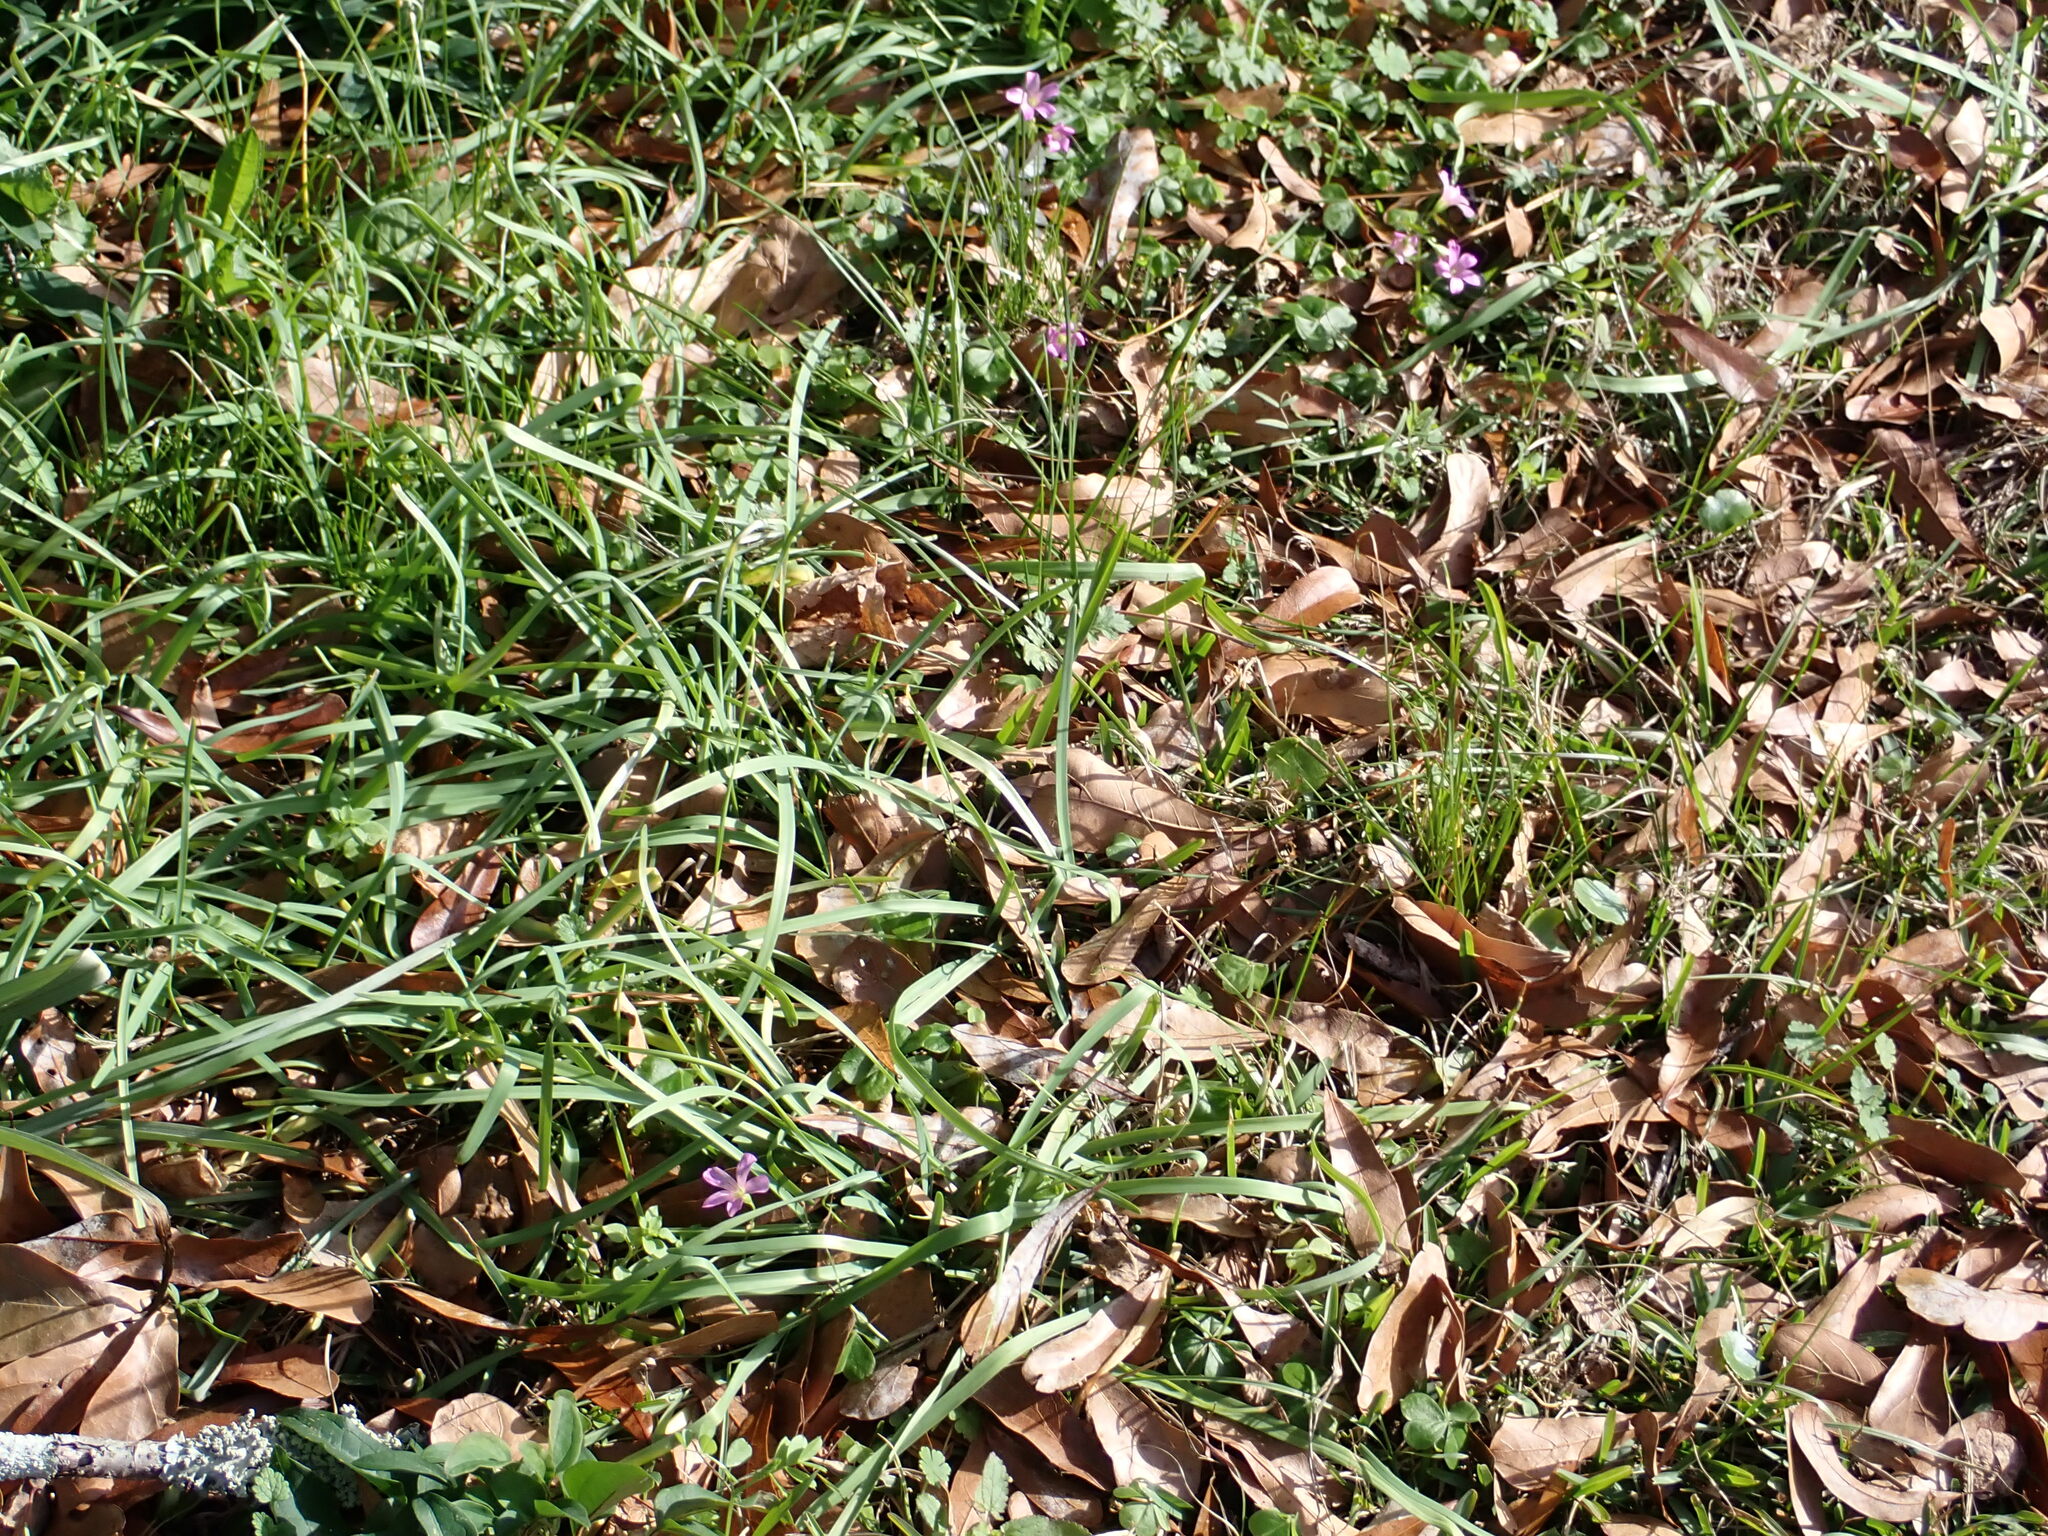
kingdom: Plantae
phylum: Tracheophyta
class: Magnoliopsida
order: Oxalidales
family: Oxalidaceae
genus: Oxalis
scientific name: Oxalis debilis
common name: Large-flowered pink-sorrel
